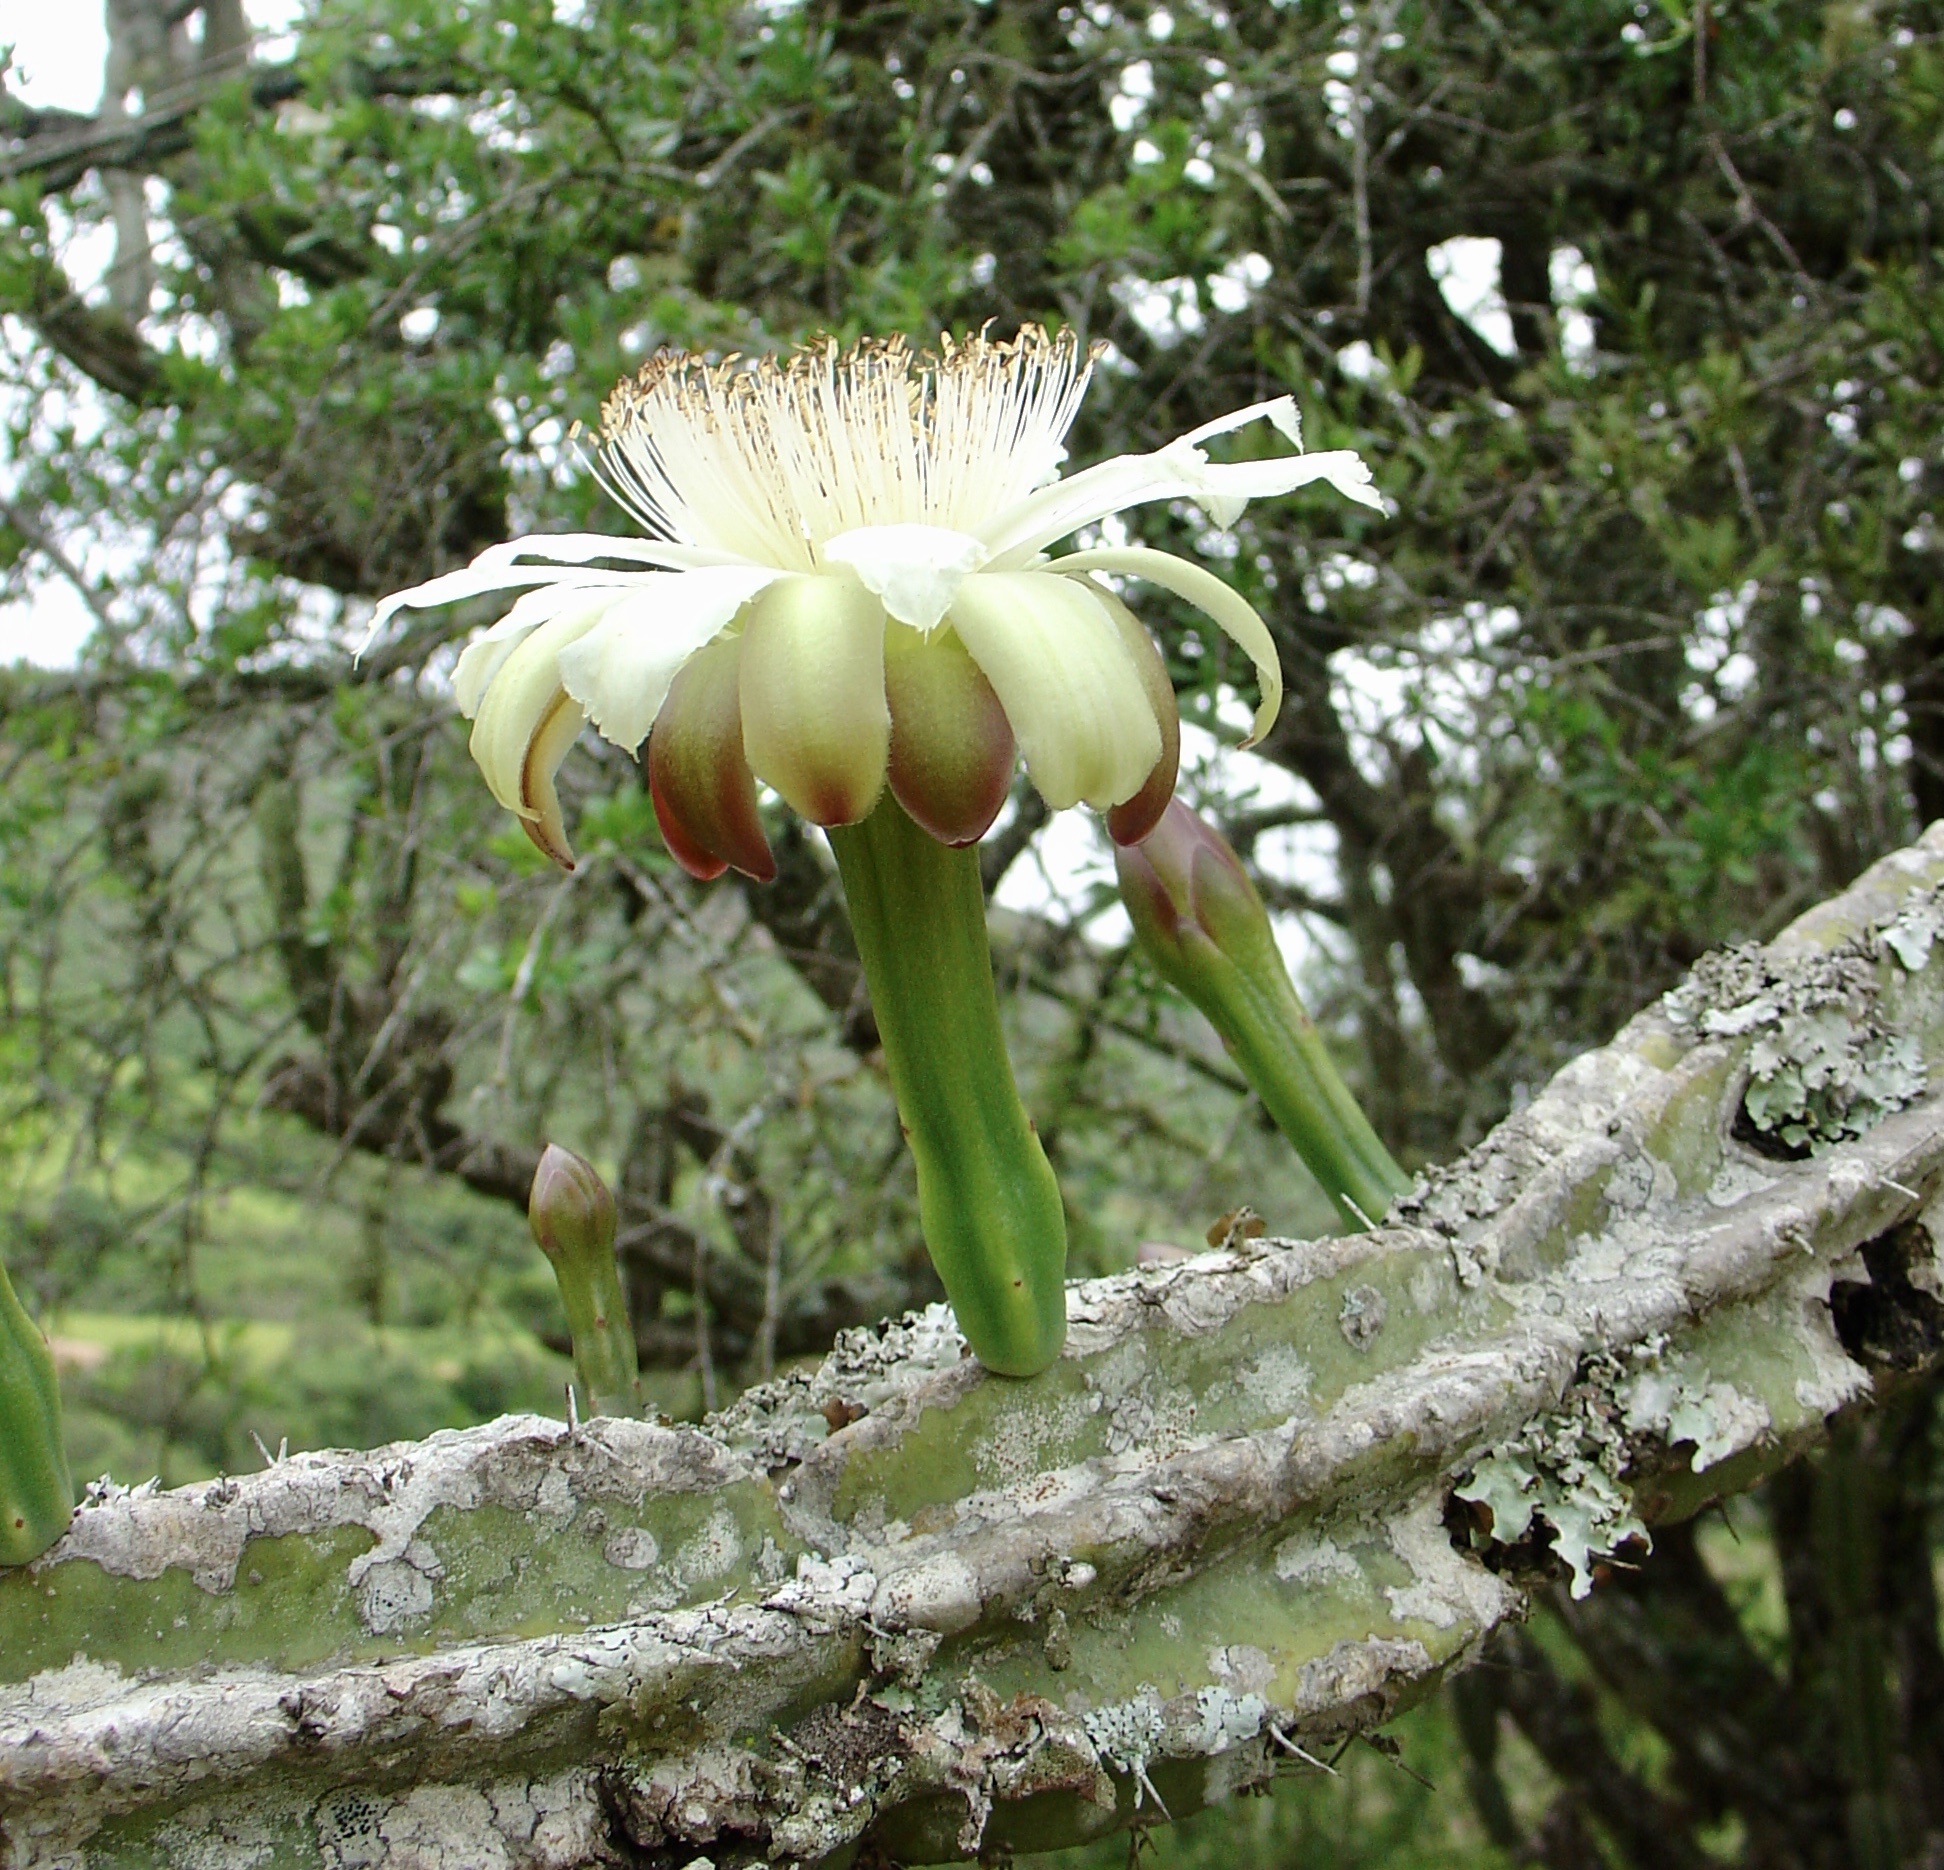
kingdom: Plantae
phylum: Tracheophyta
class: Magnoliopsida
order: Caryophyllales
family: Cactaceae
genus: Cereus
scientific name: Cereus stenogonus
